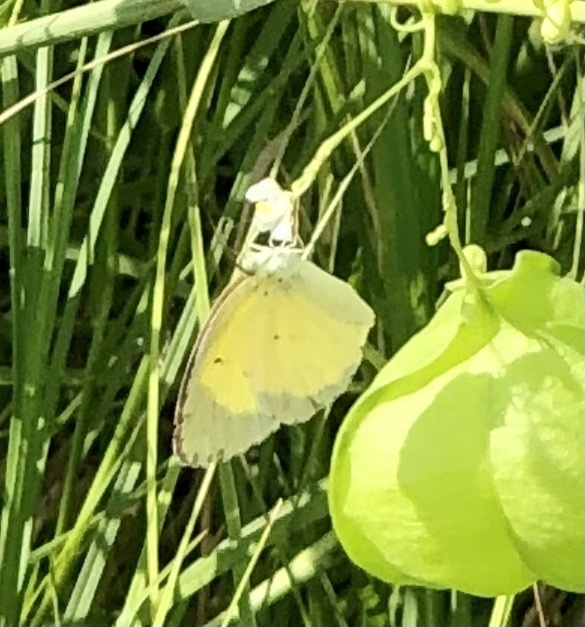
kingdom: Animalia
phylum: Arthropoda
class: Insecta
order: Lepidoptera
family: Pieridae
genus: Pyrisitia
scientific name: Pyrisitia lisa
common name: Little yellow
